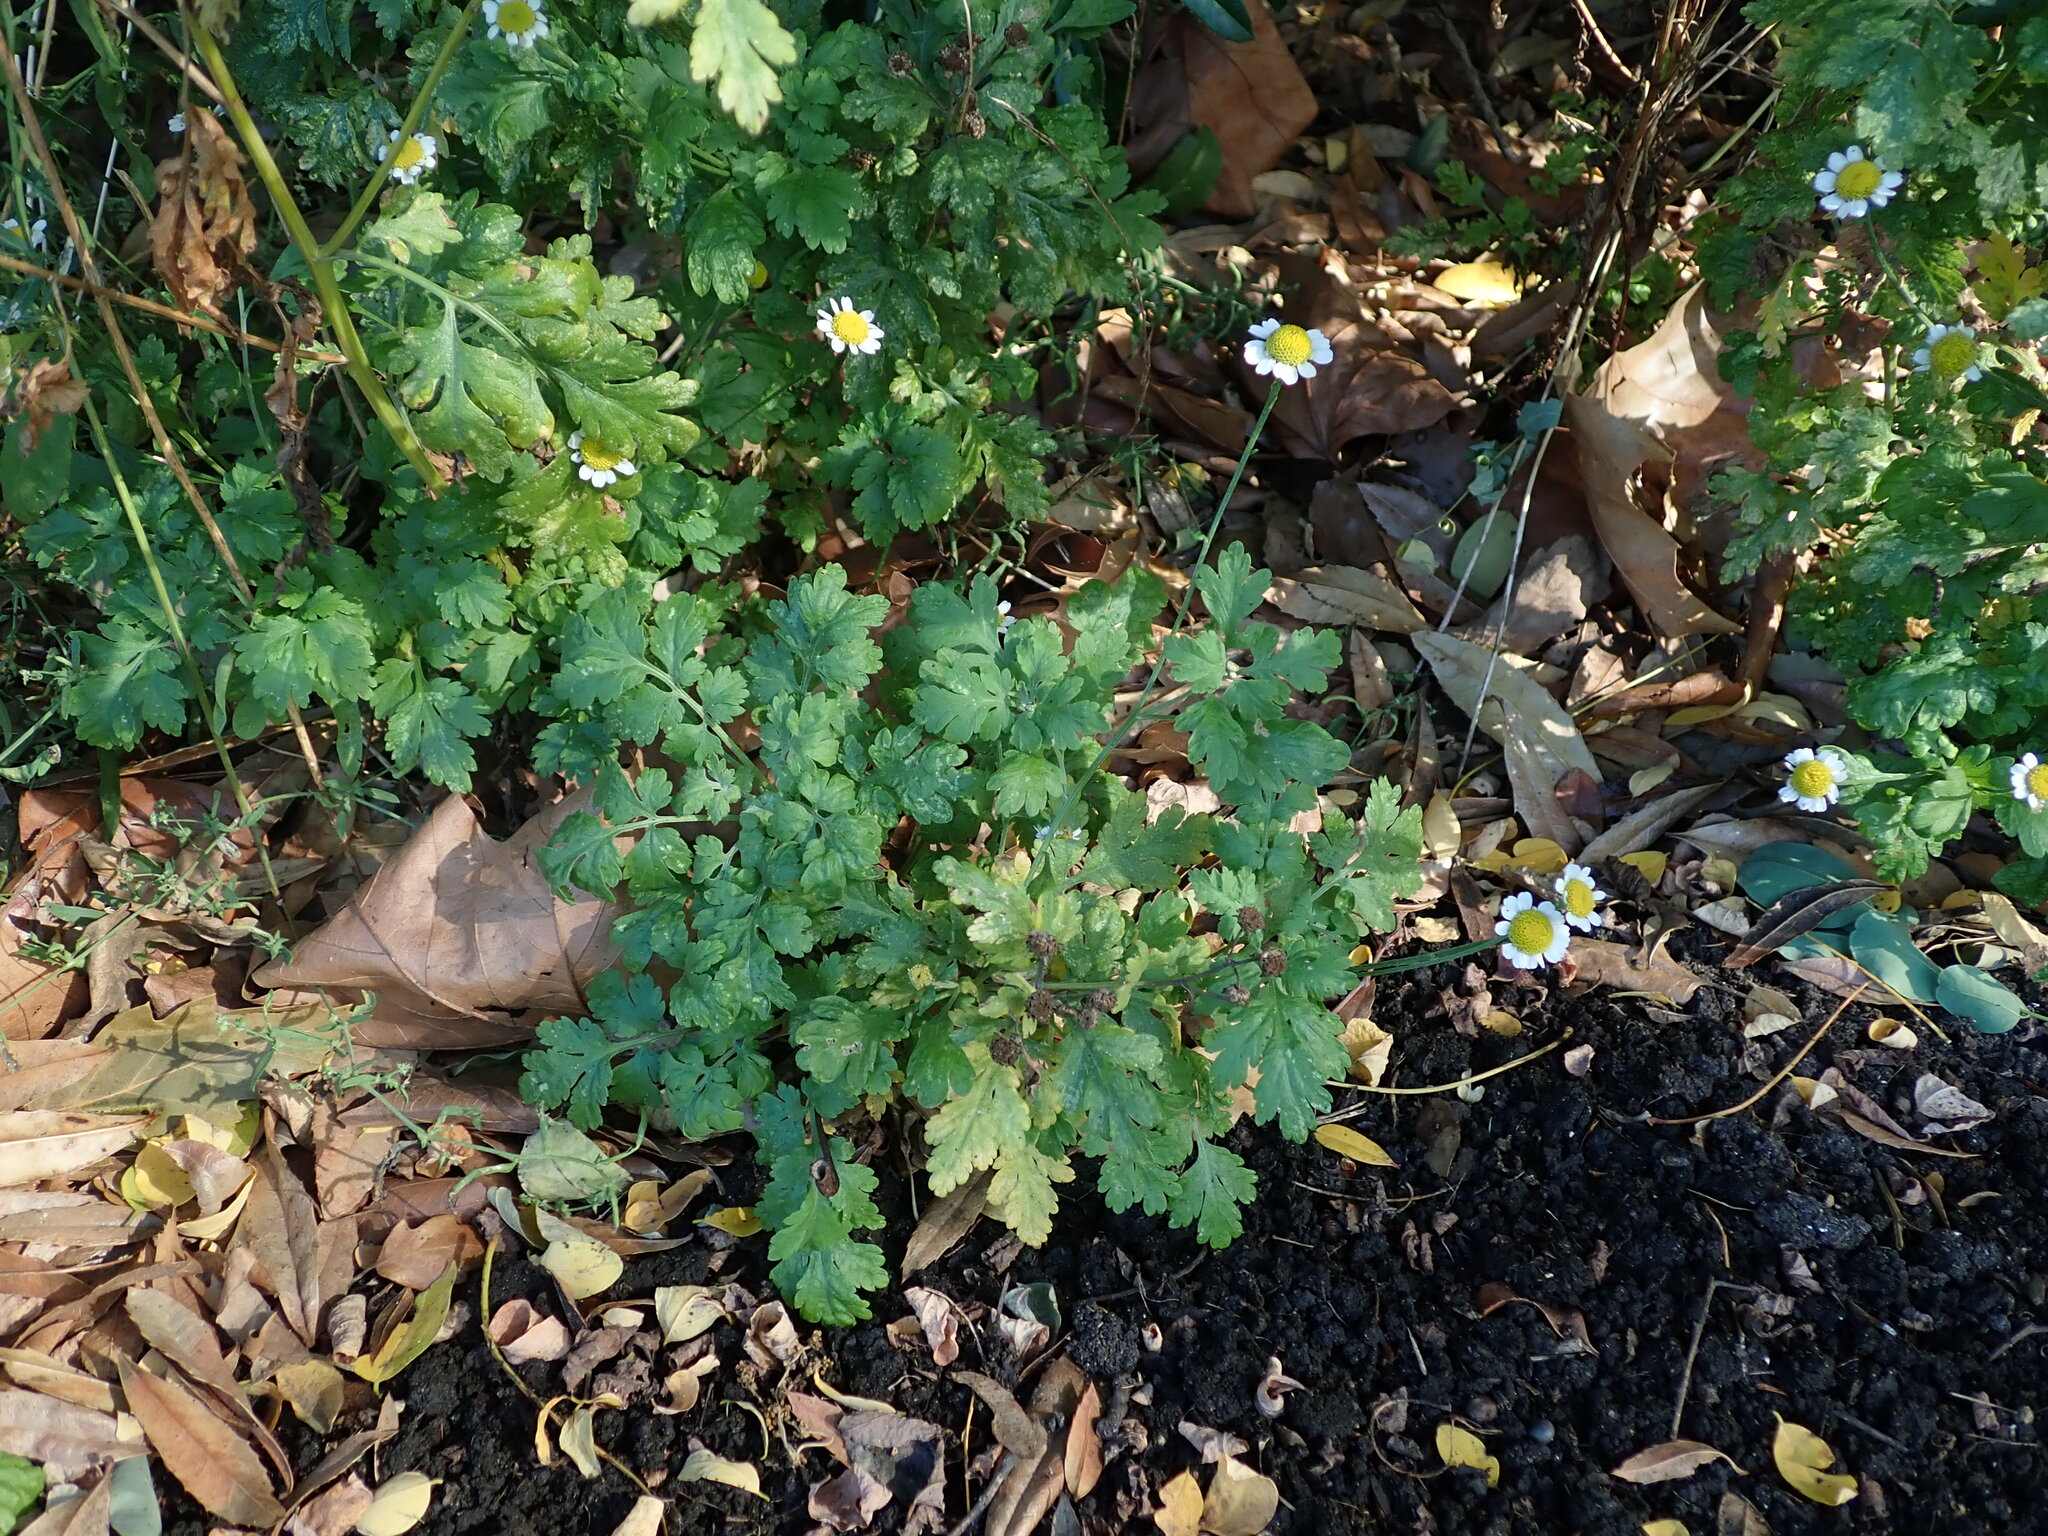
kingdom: Plantae
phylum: Tracheophyta
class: Magnoliopsida
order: Asterales
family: Asteraceae
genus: Tanacetum
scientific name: Tanacetum parthenium
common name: Feverfew
